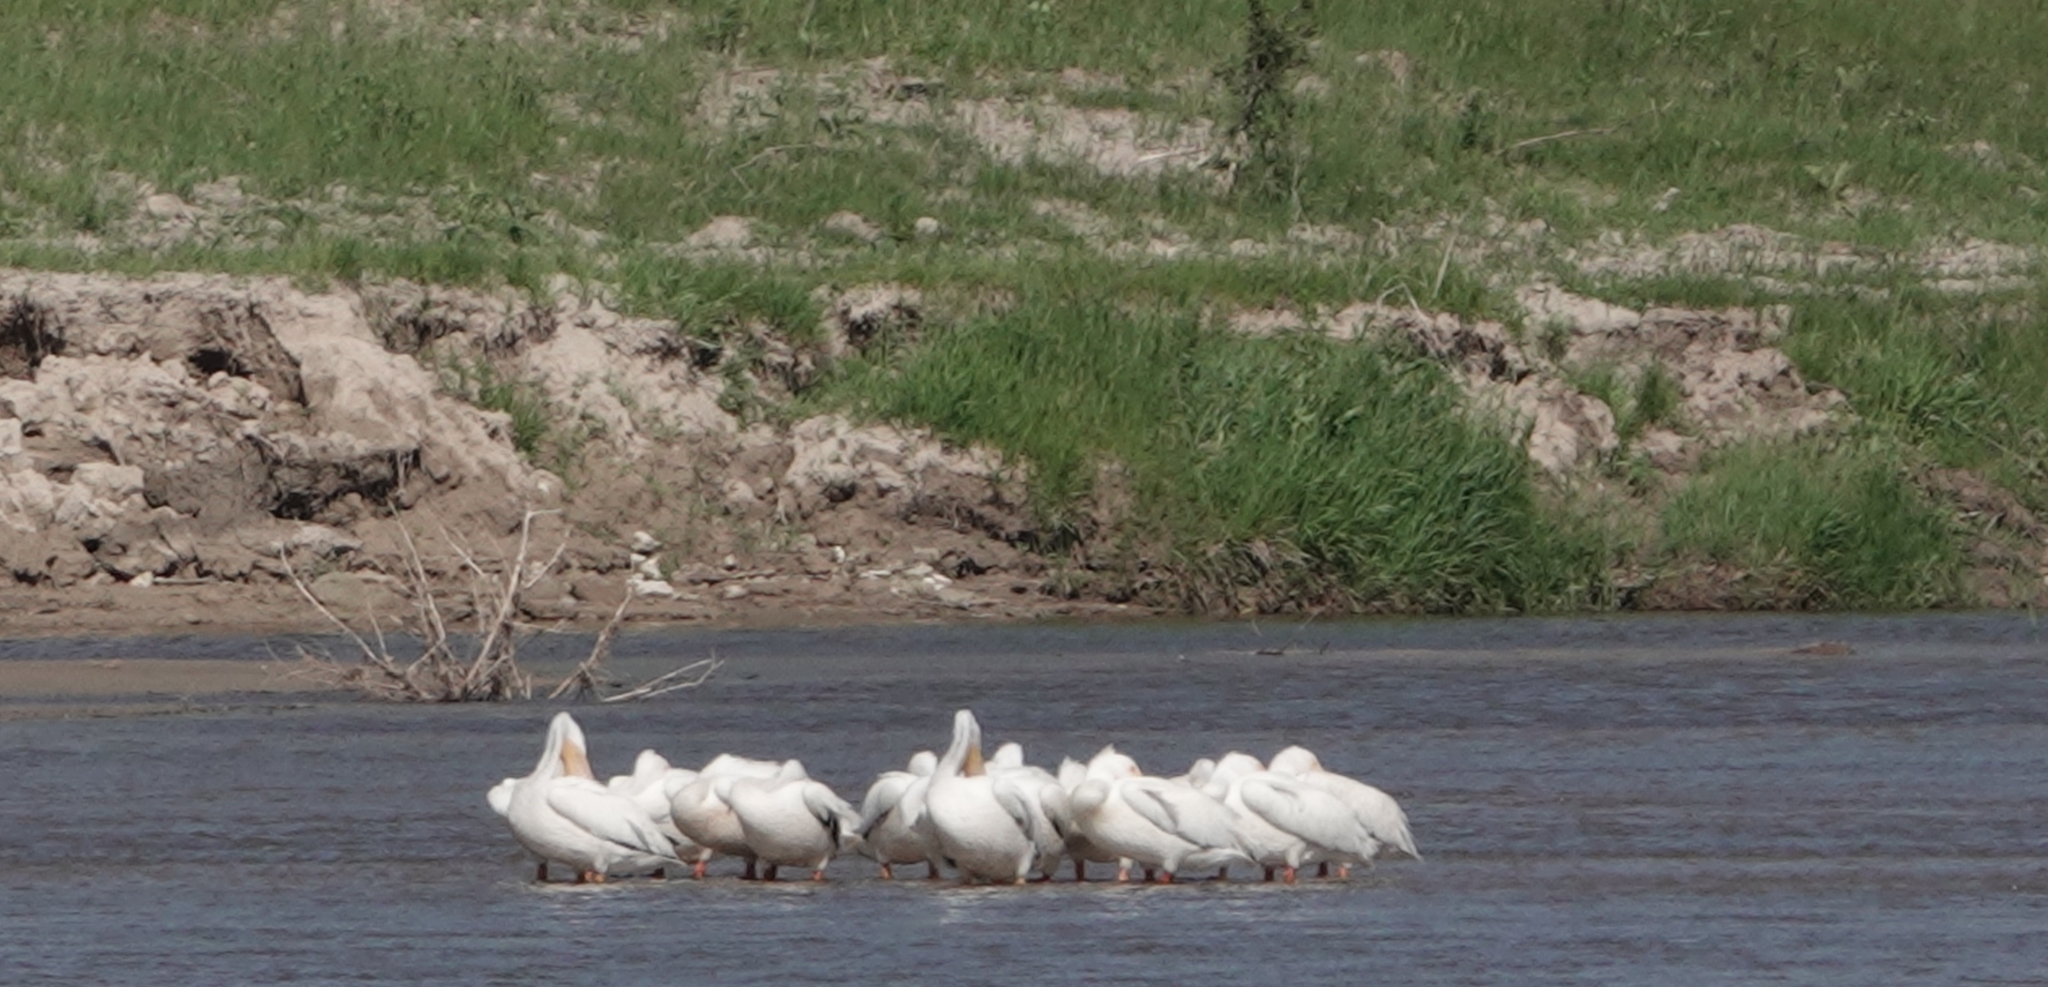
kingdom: Animalia
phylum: Chordata
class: Aves
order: Pelecaniformes
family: Pelecanidae
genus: Pelecanus
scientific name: Pelecanus erythrorhynchos
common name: American white pelican
